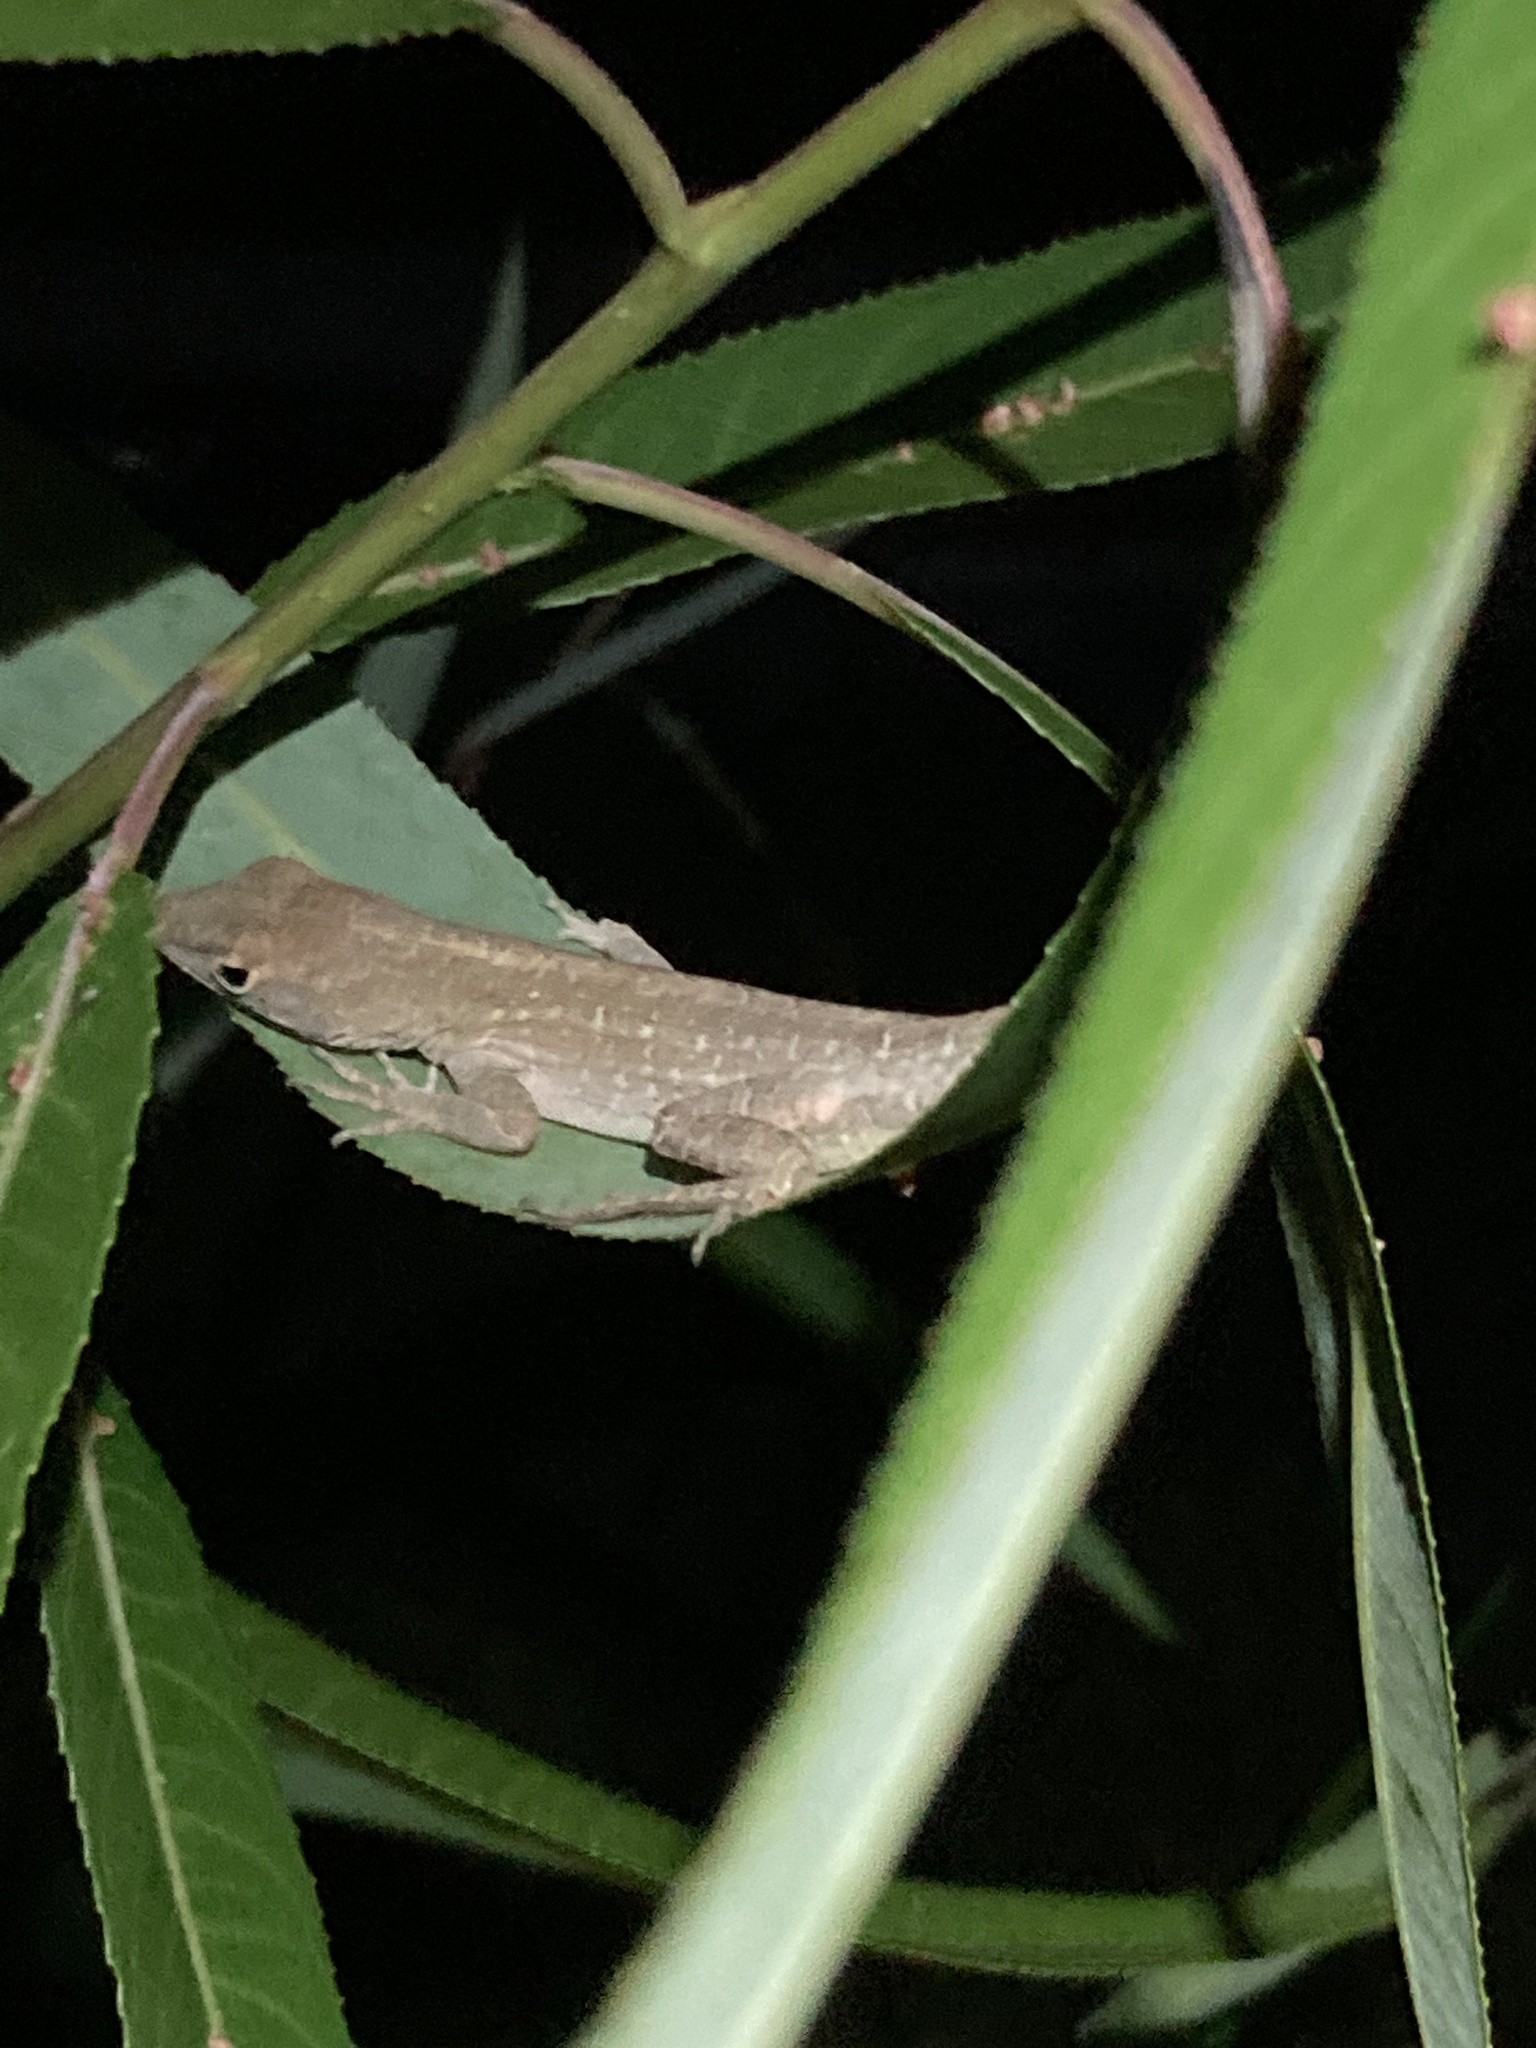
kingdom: Animalia
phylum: Chordata
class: Squamata
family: Dactyloidae
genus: Anolis
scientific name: Anolis sagrei
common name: Brown anole
